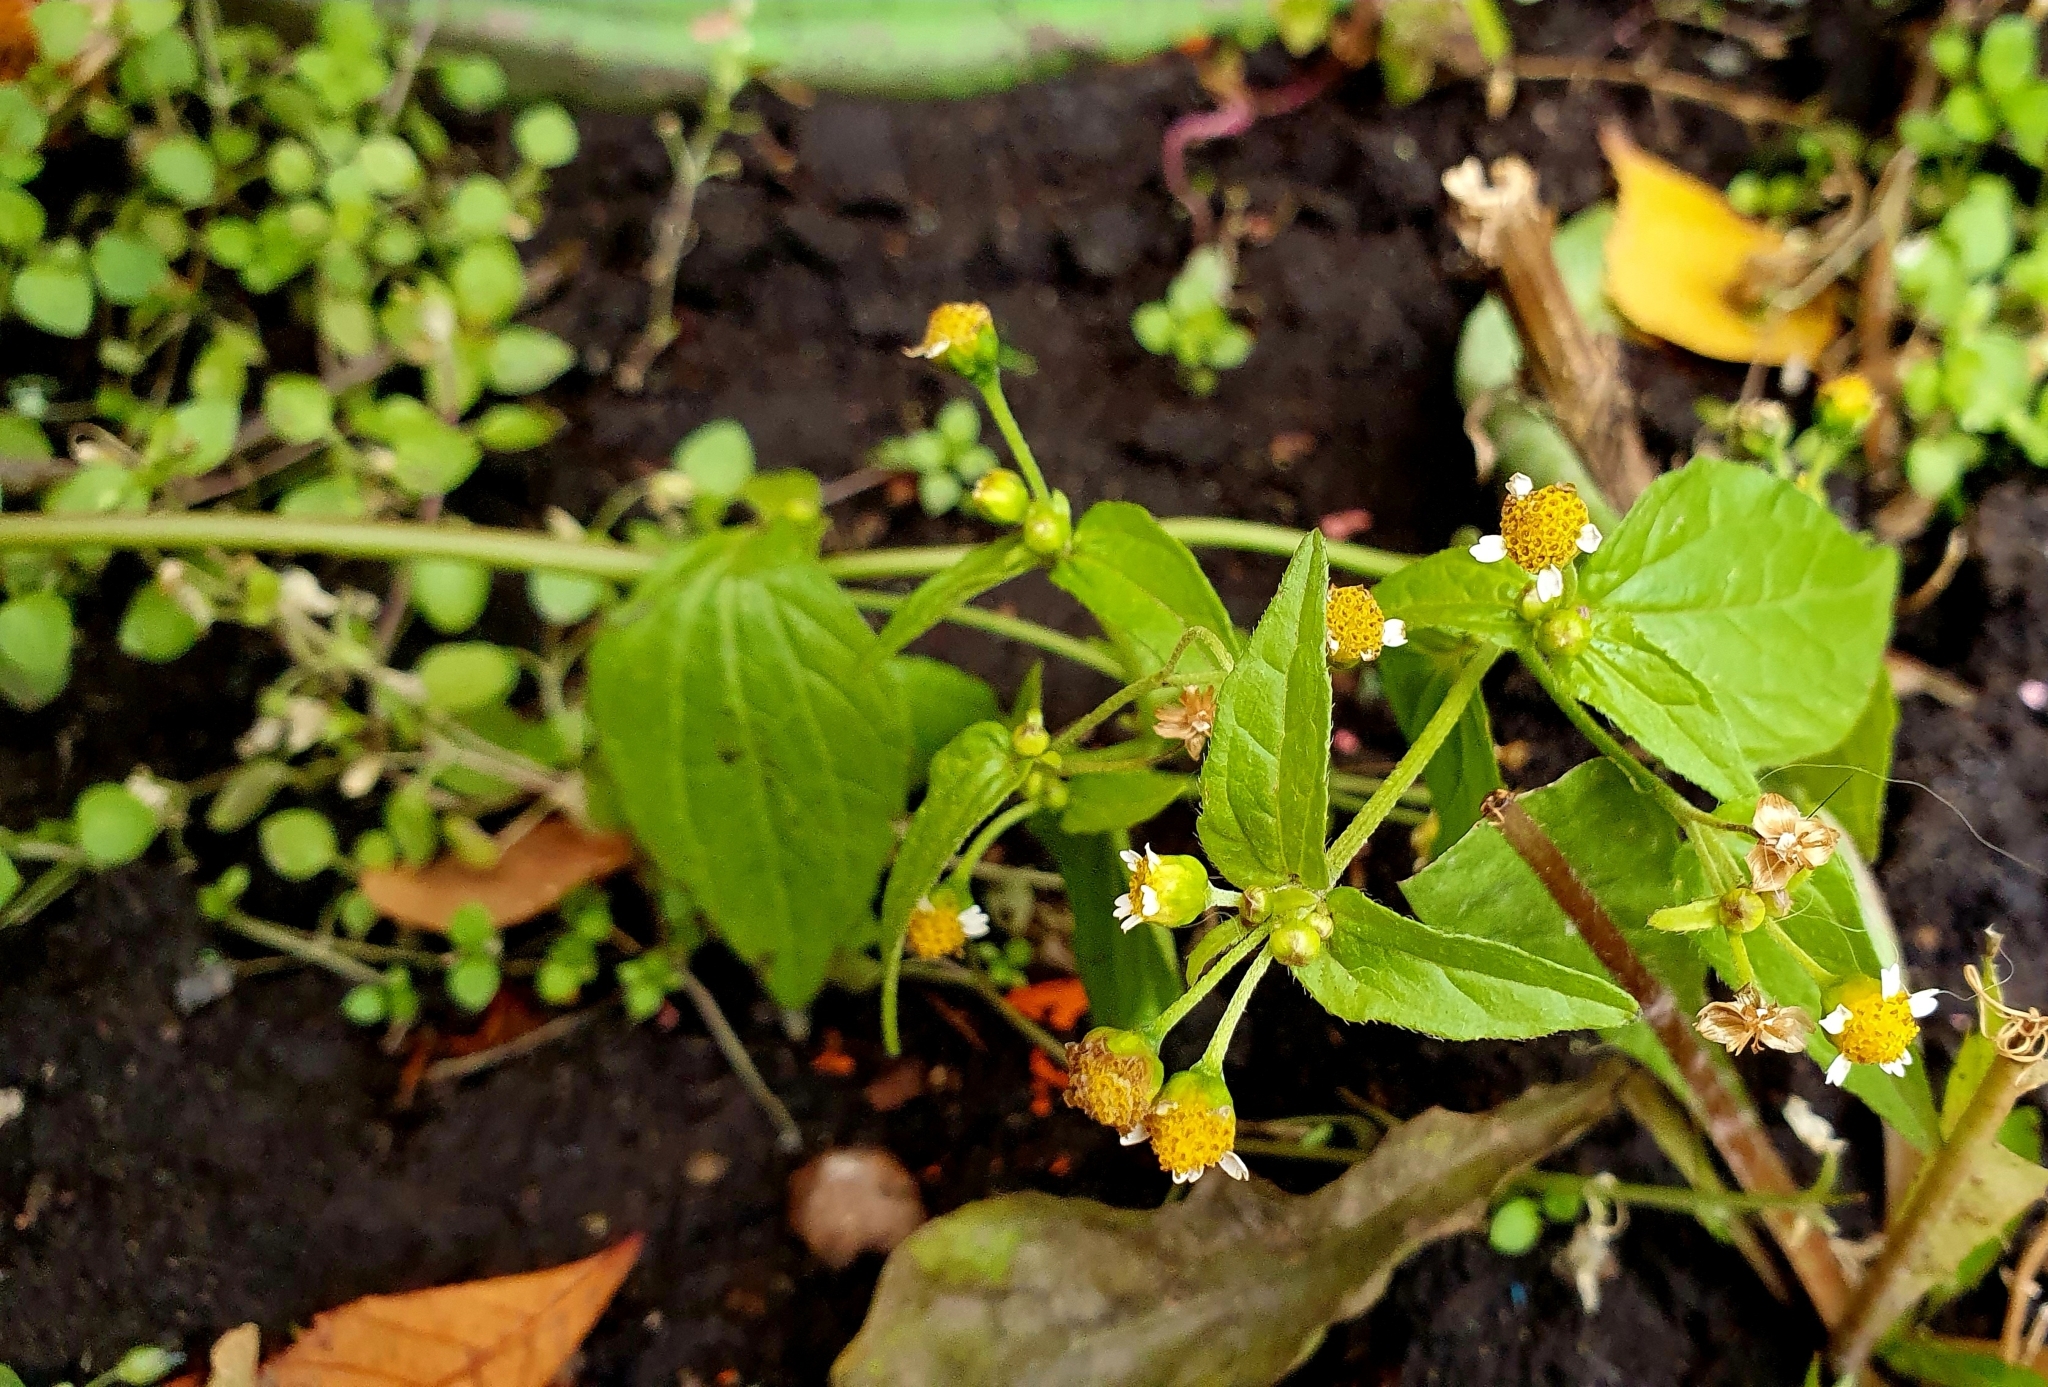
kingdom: Plantae
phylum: Tracheophyta
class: Magnoliopsida
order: Asterales
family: Asteraceae
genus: Galinsoga
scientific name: Galinsoga parviflora
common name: Gallant soldier
